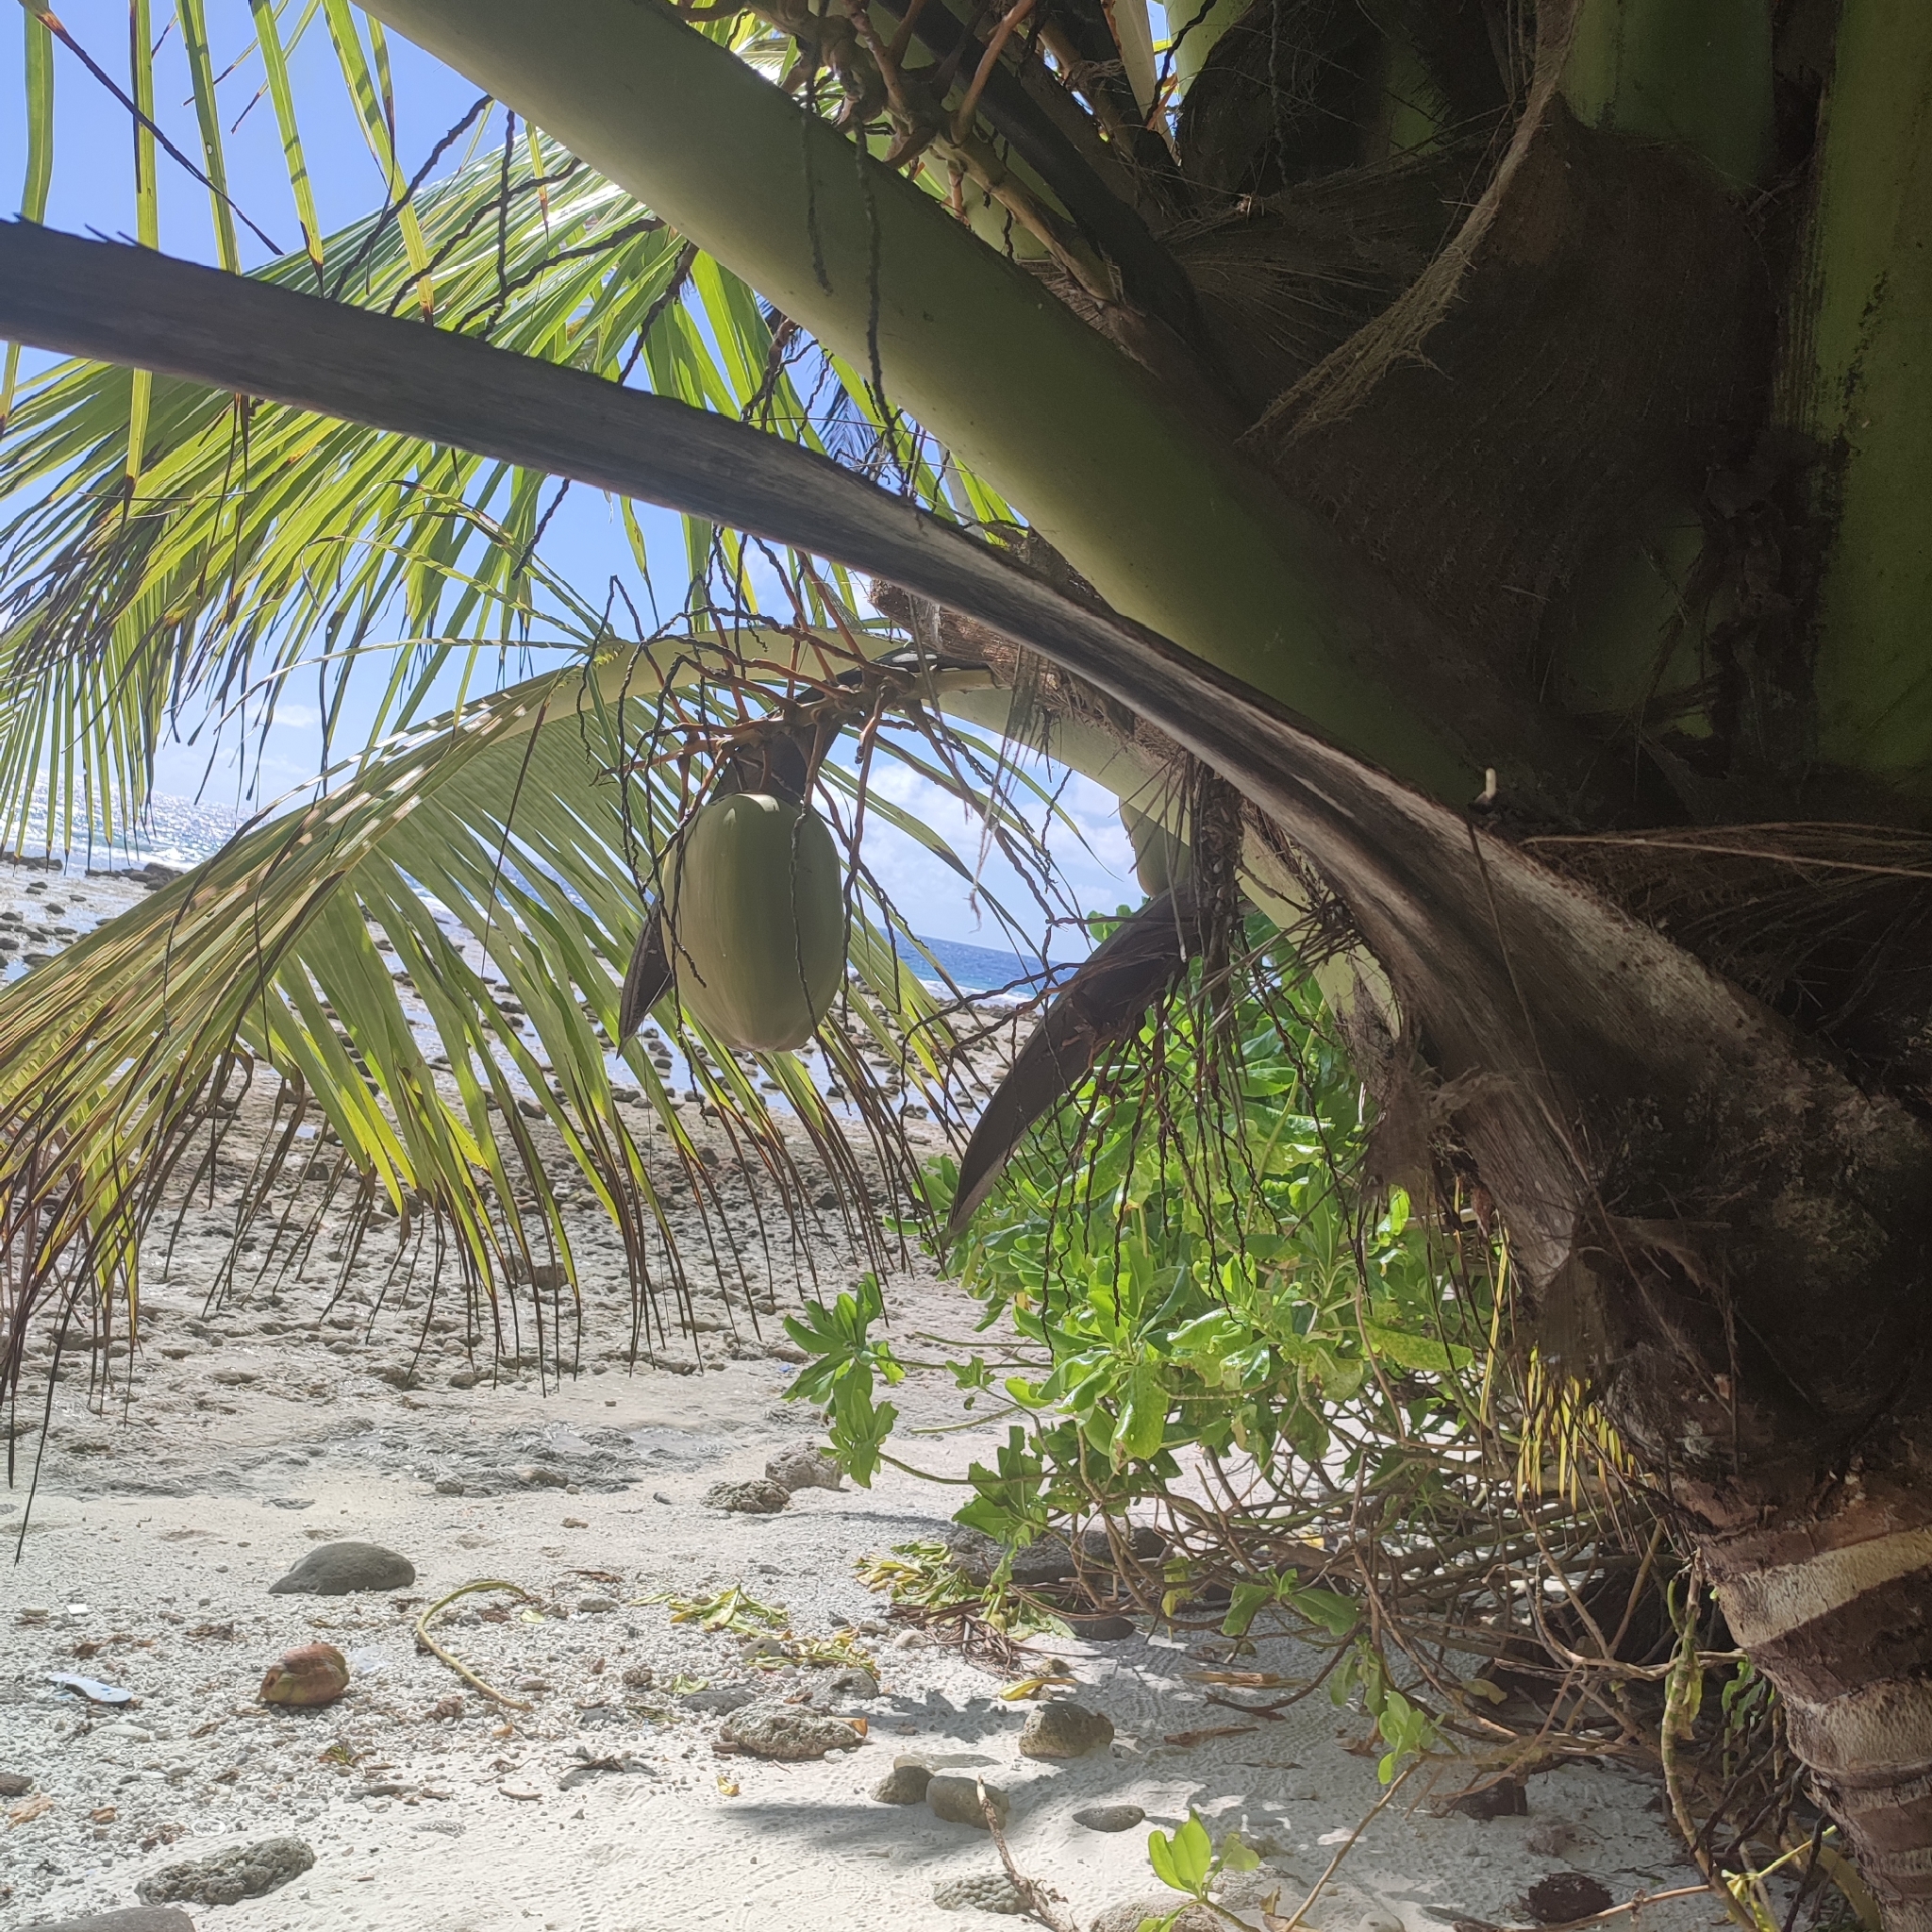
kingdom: Plantae
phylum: Tracheophyta
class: Liliopsida
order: Arecales
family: Arecaceae
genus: Cocos
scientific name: Cocos nucifera
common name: Coconut palm
